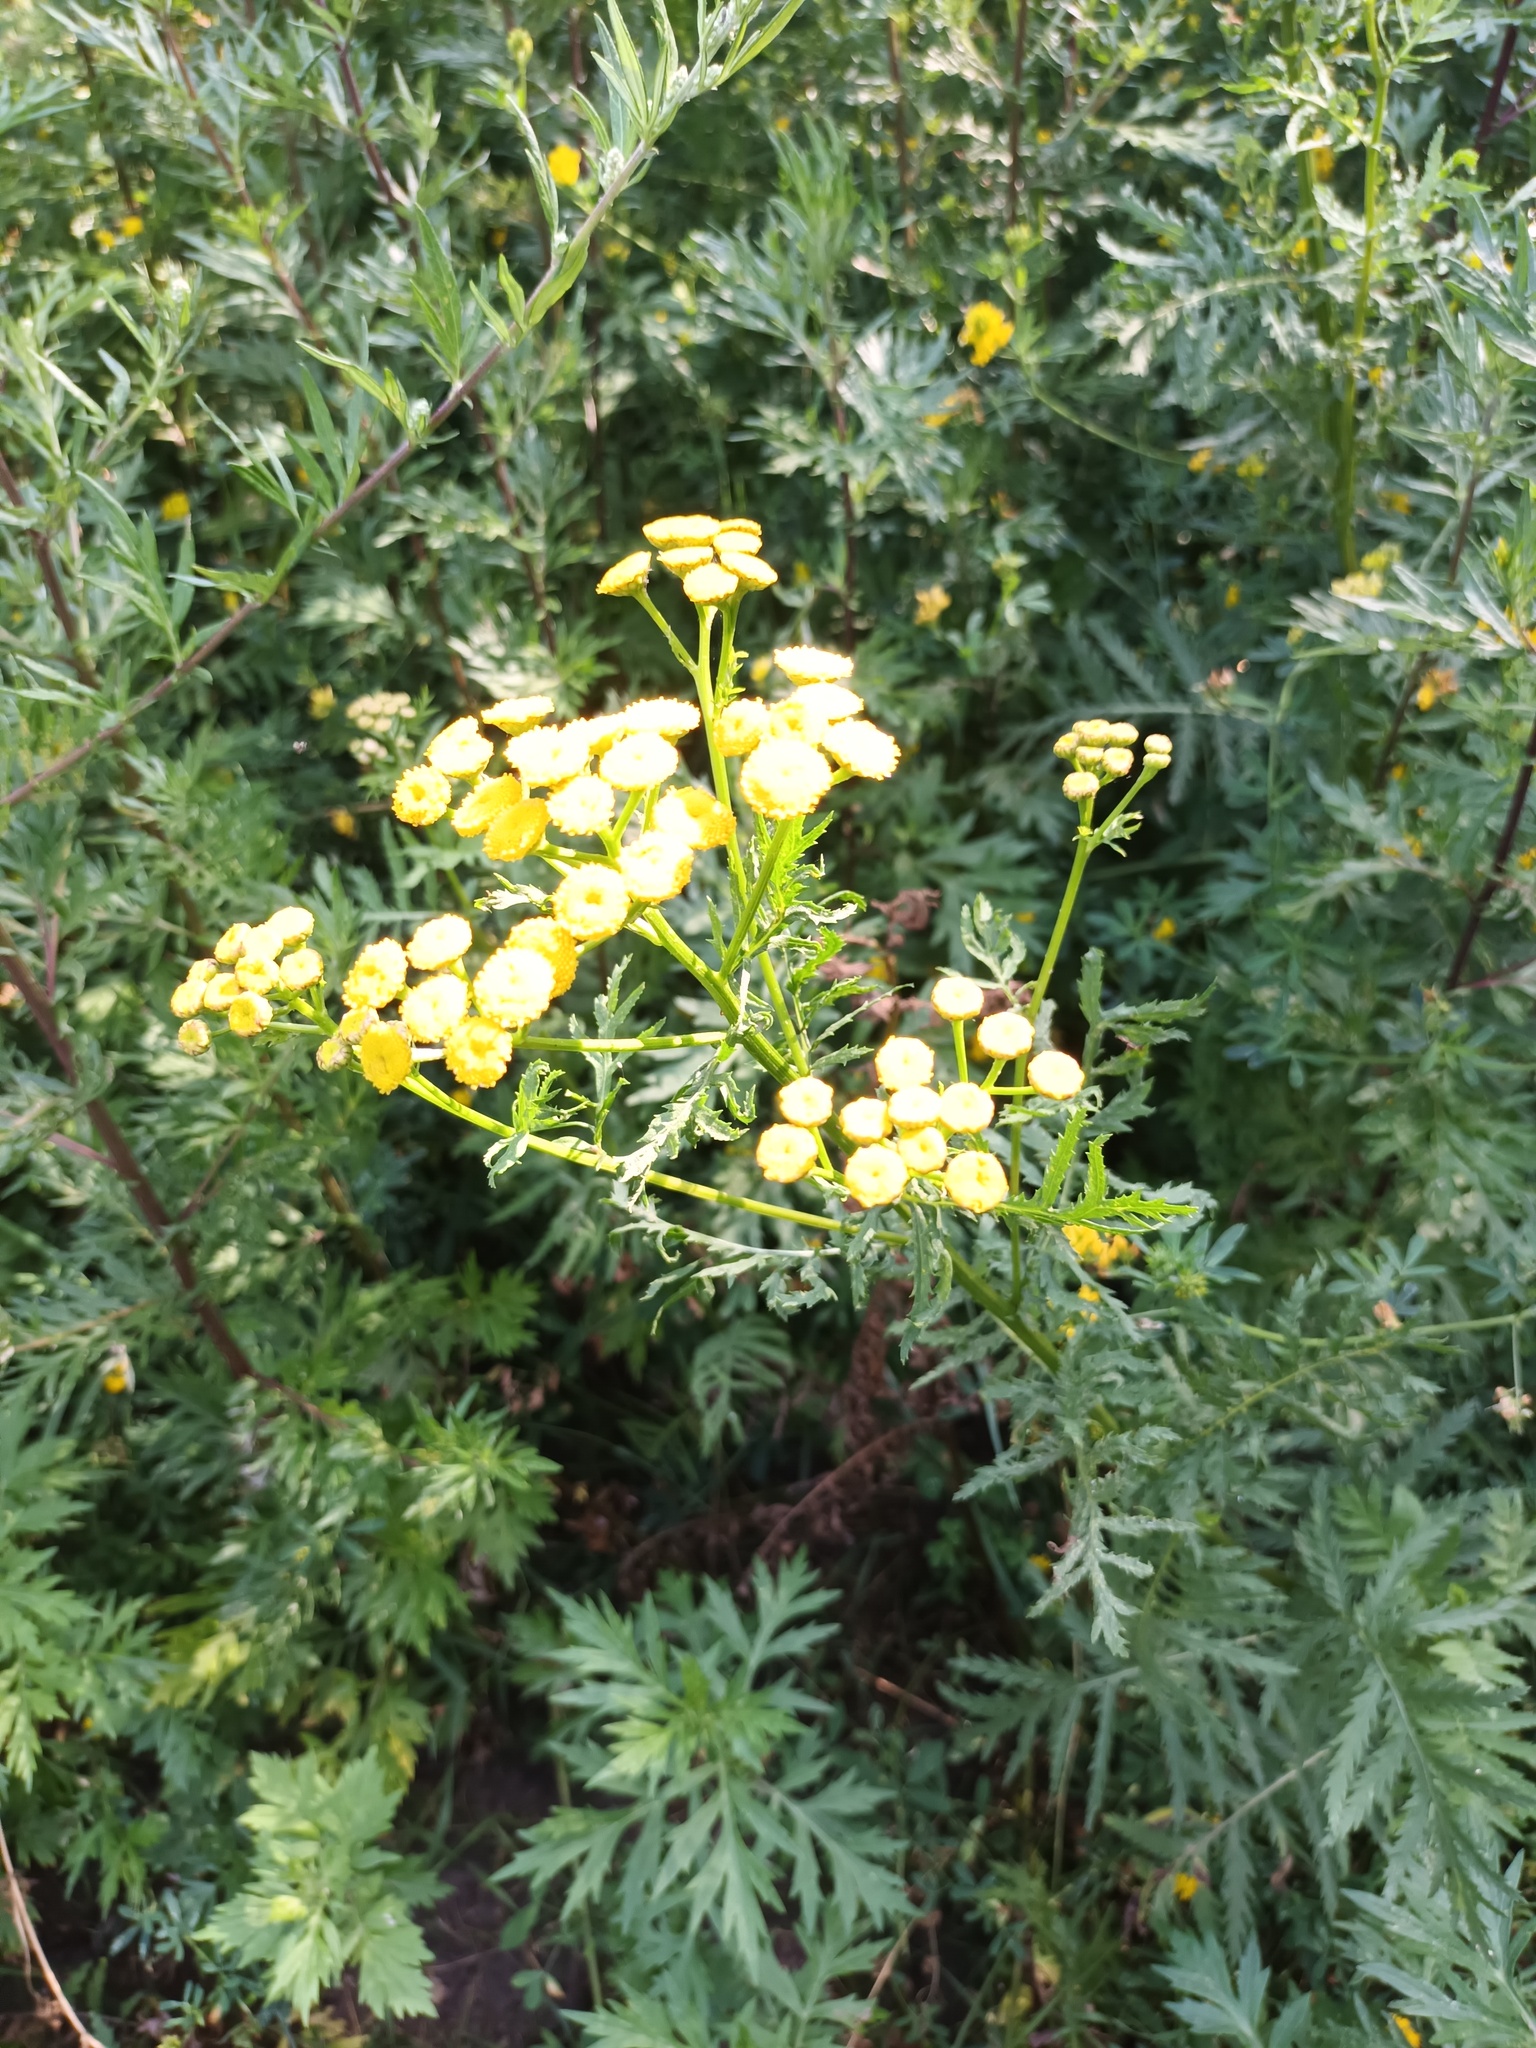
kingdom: Plantae
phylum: Tracheophyta
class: Magnoliopsida
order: Asterales
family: Asteraceae
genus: Tanacetum
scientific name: Tanacetum vulgare
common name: Common tansy
